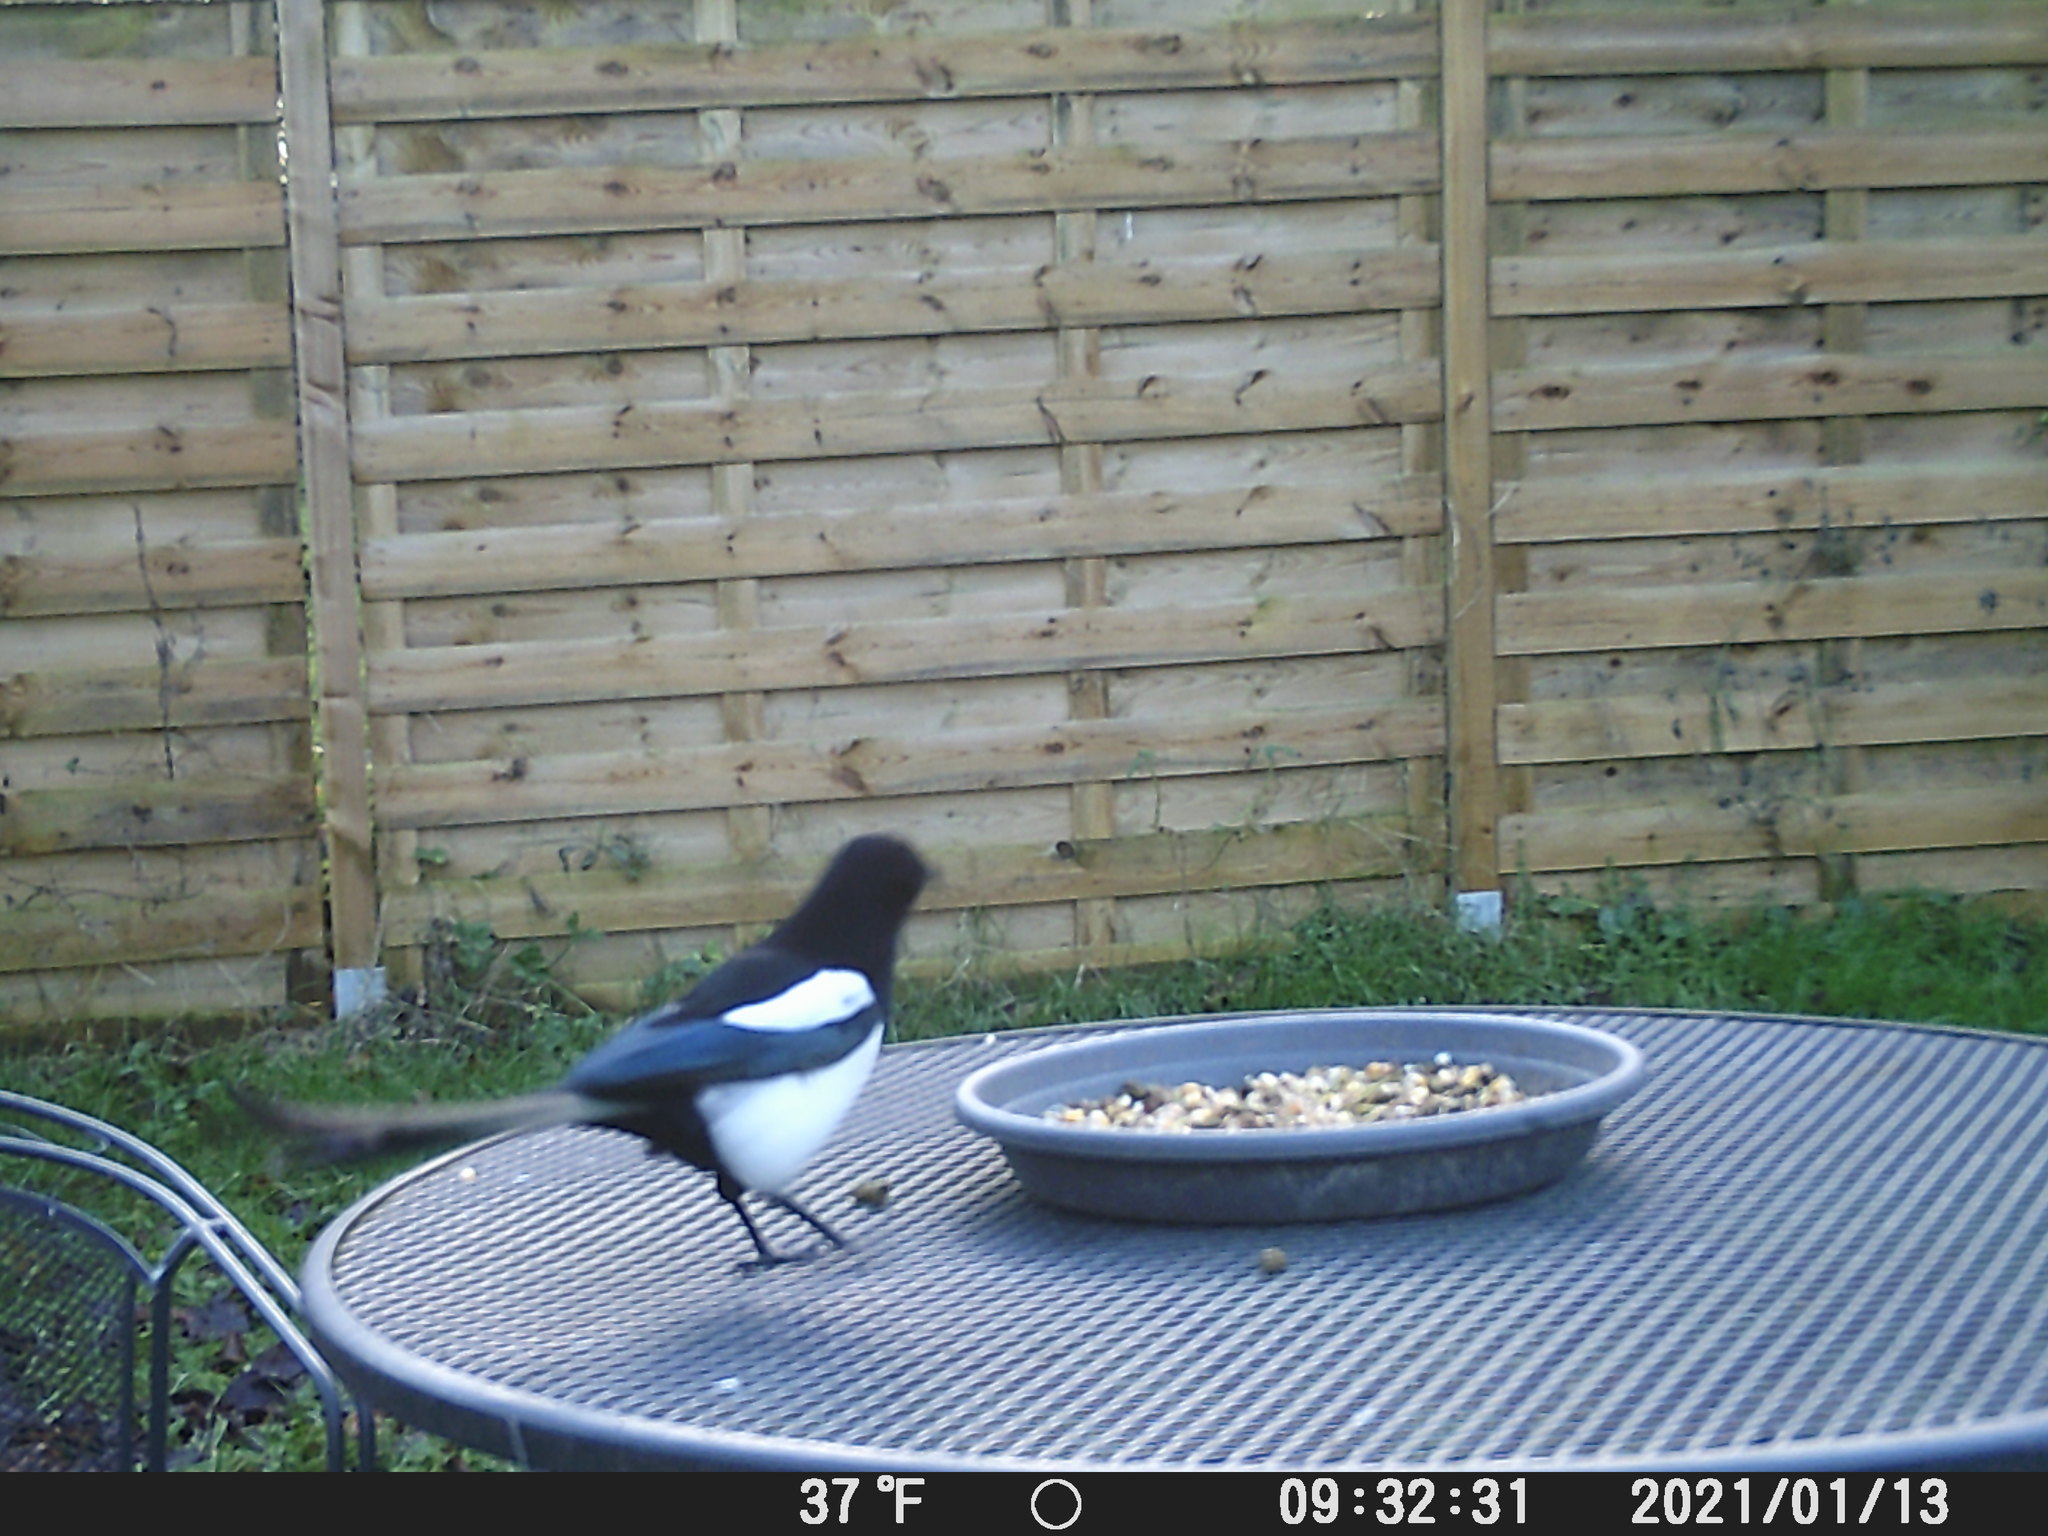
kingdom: Animalia
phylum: Chordata
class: Aves
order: Passeriformes
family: Corvidae
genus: Pica
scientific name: Pica pica
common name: Eurasian magpie
